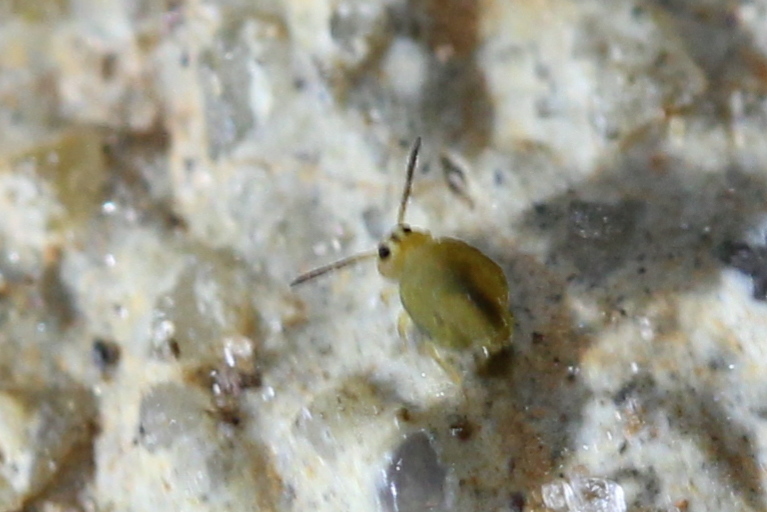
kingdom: Animalia
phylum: Arthropoda
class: Collembola
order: Symphypleona
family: Katiannidae
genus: Sminthurinus
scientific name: Sminthurinus henshawi
